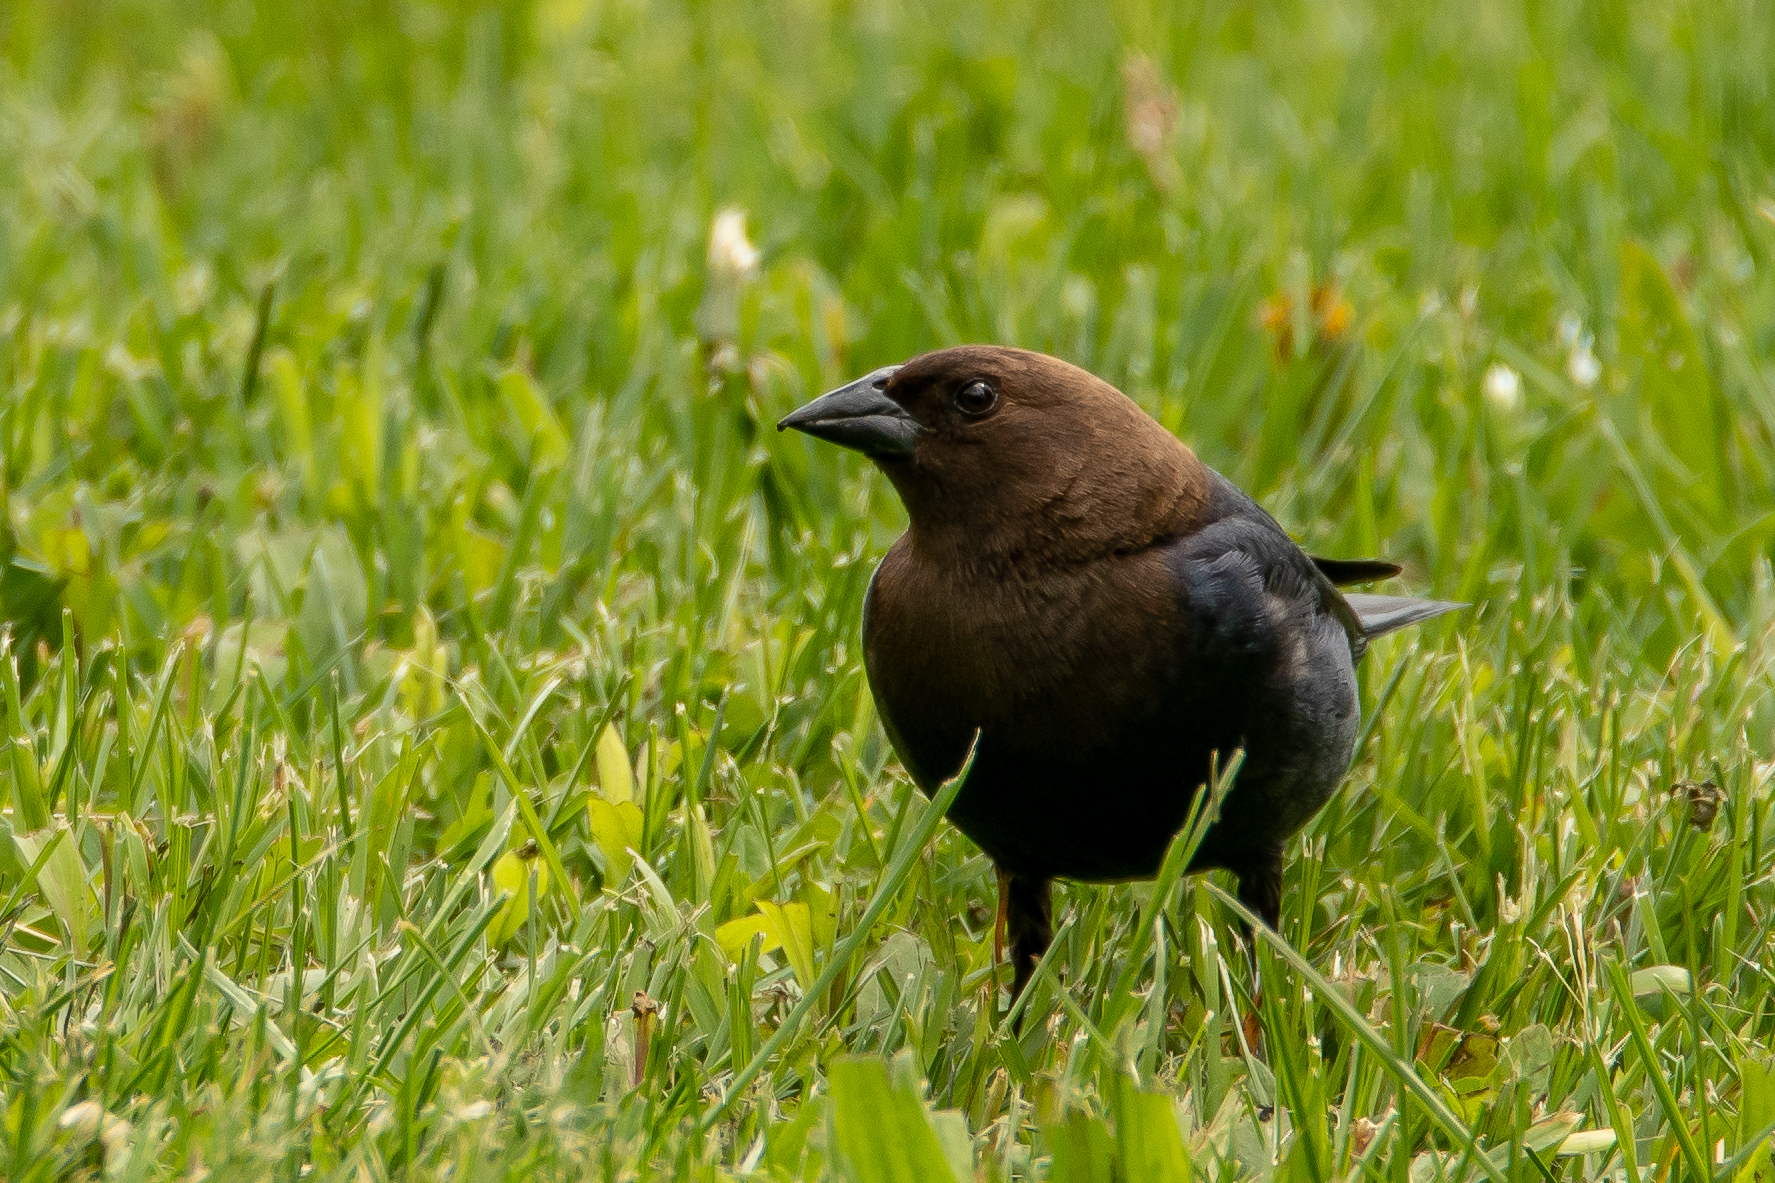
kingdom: Animalia
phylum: Chordata
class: Aves
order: Passeriformes
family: Icteridae
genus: Molothrus
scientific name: Molothrus ater
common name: Brown-headed cowbird
